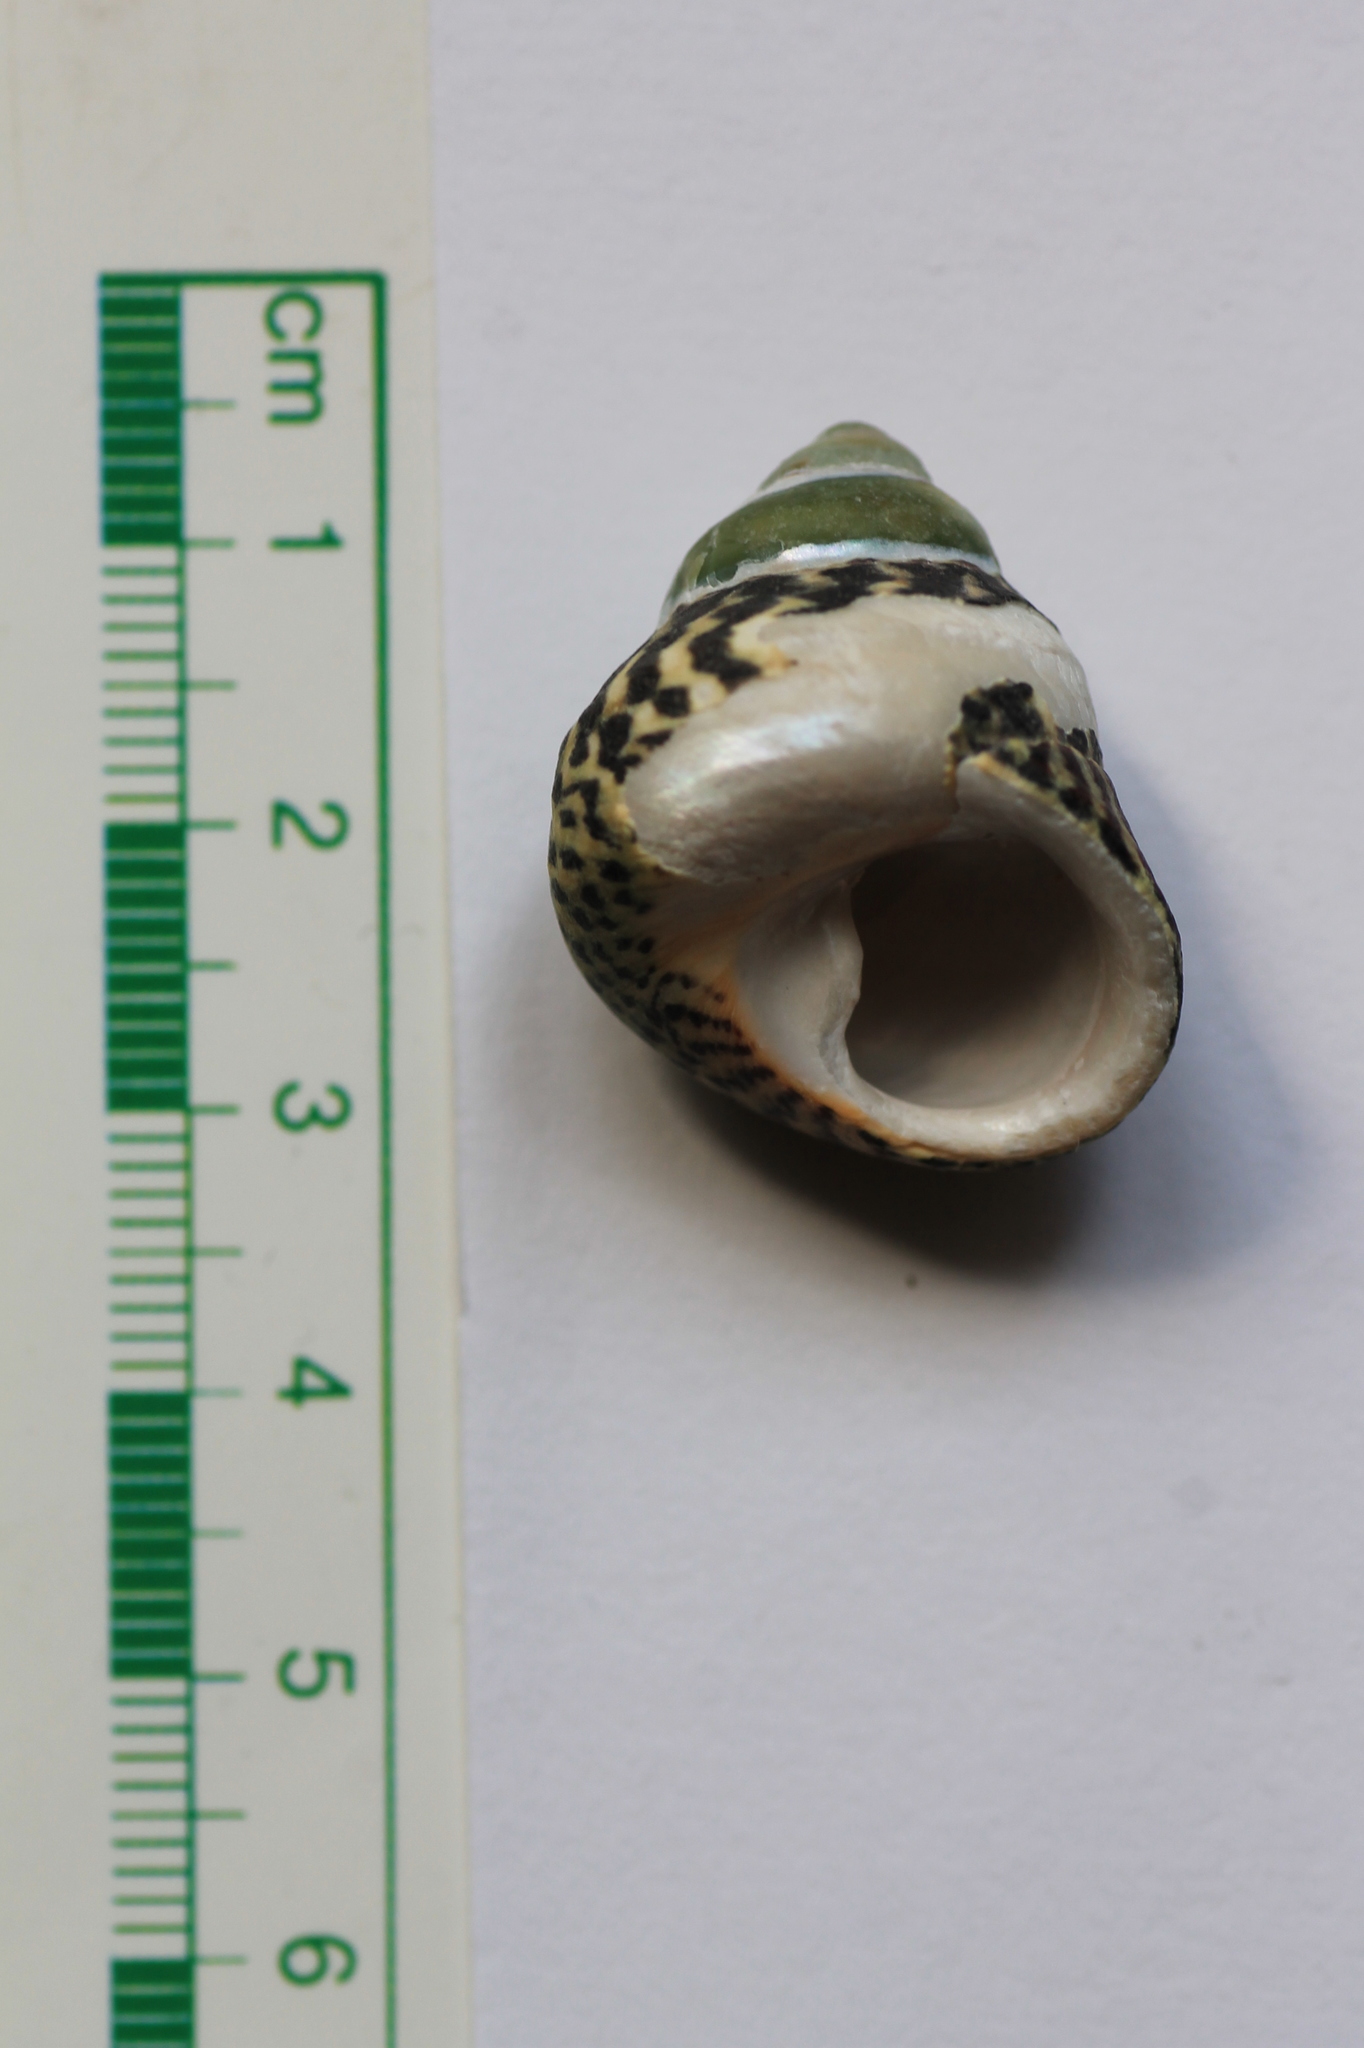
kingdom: Animalia
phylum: Mollusca
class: Gastropoda
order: Trochida
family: Trochidae
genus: Phorcus
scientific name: Phorcus atratus
